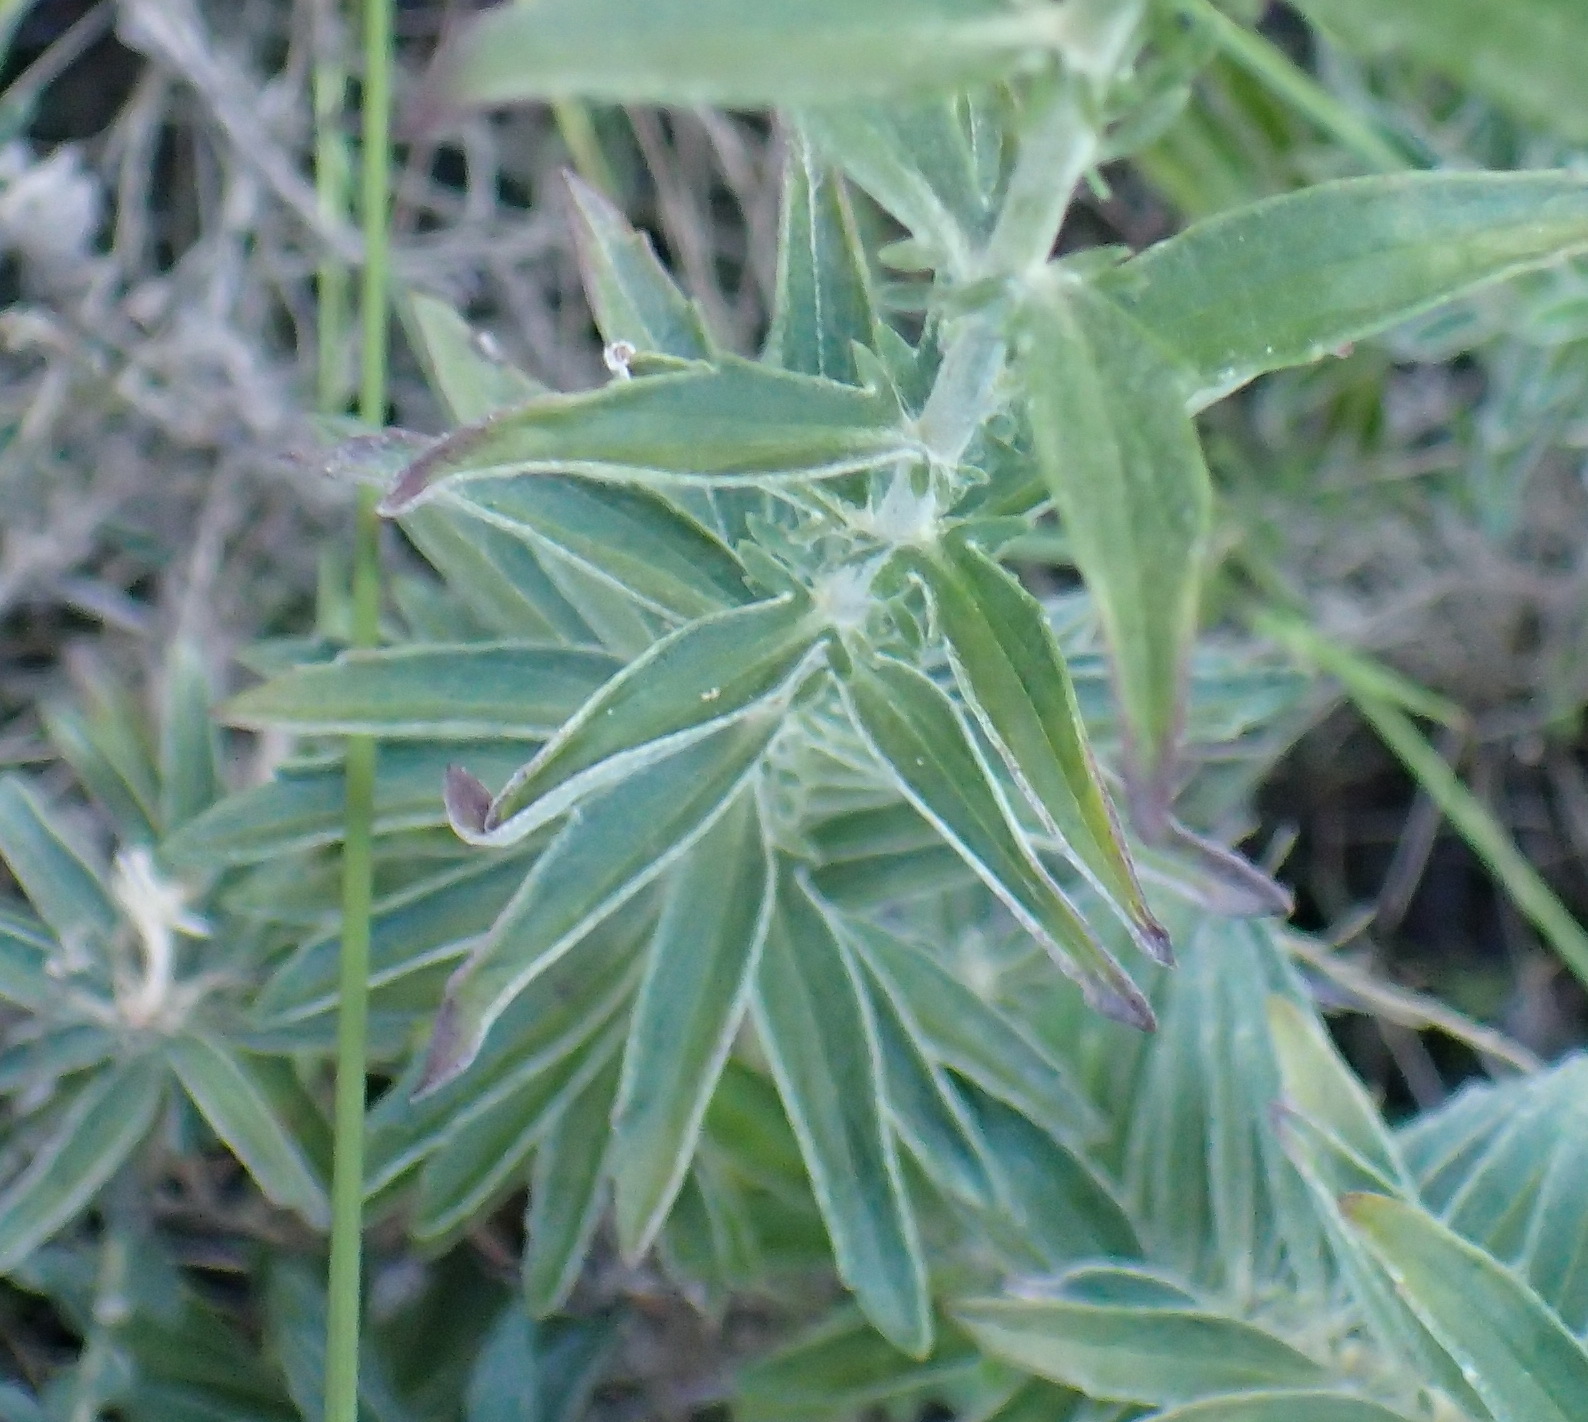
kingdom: Plantae
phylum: Tracheophyta
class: Magnoliopsida
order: Asterales
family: Asteraceae
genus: Senecio
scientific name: Senecio crenatus
